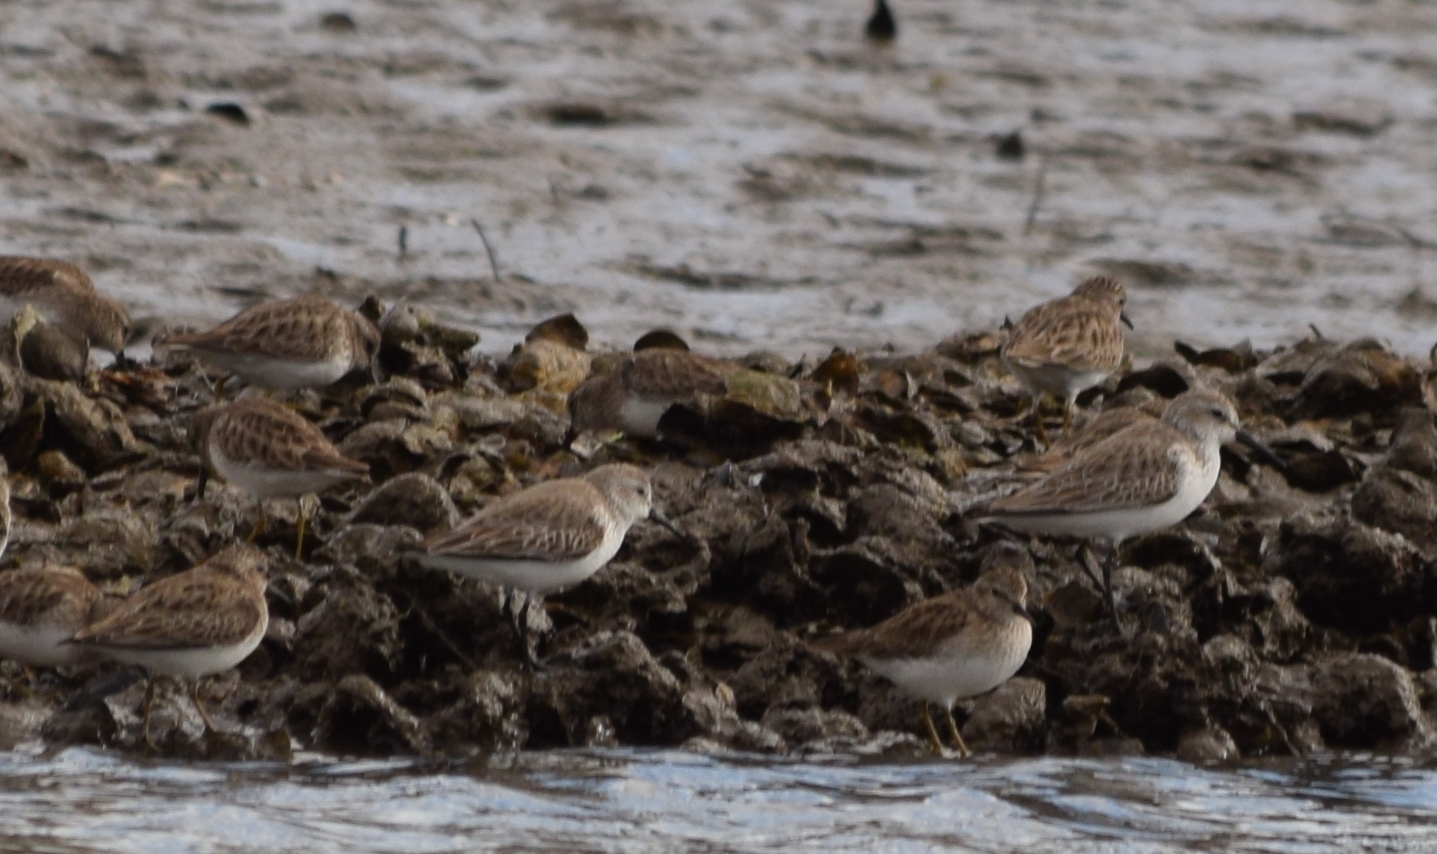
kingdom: Animalia
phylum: Chordata
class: Aves
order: Charadriiformes
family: Scolopacidae
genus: Calidris
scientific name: Calidris minutilla
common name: Least sandpiper
